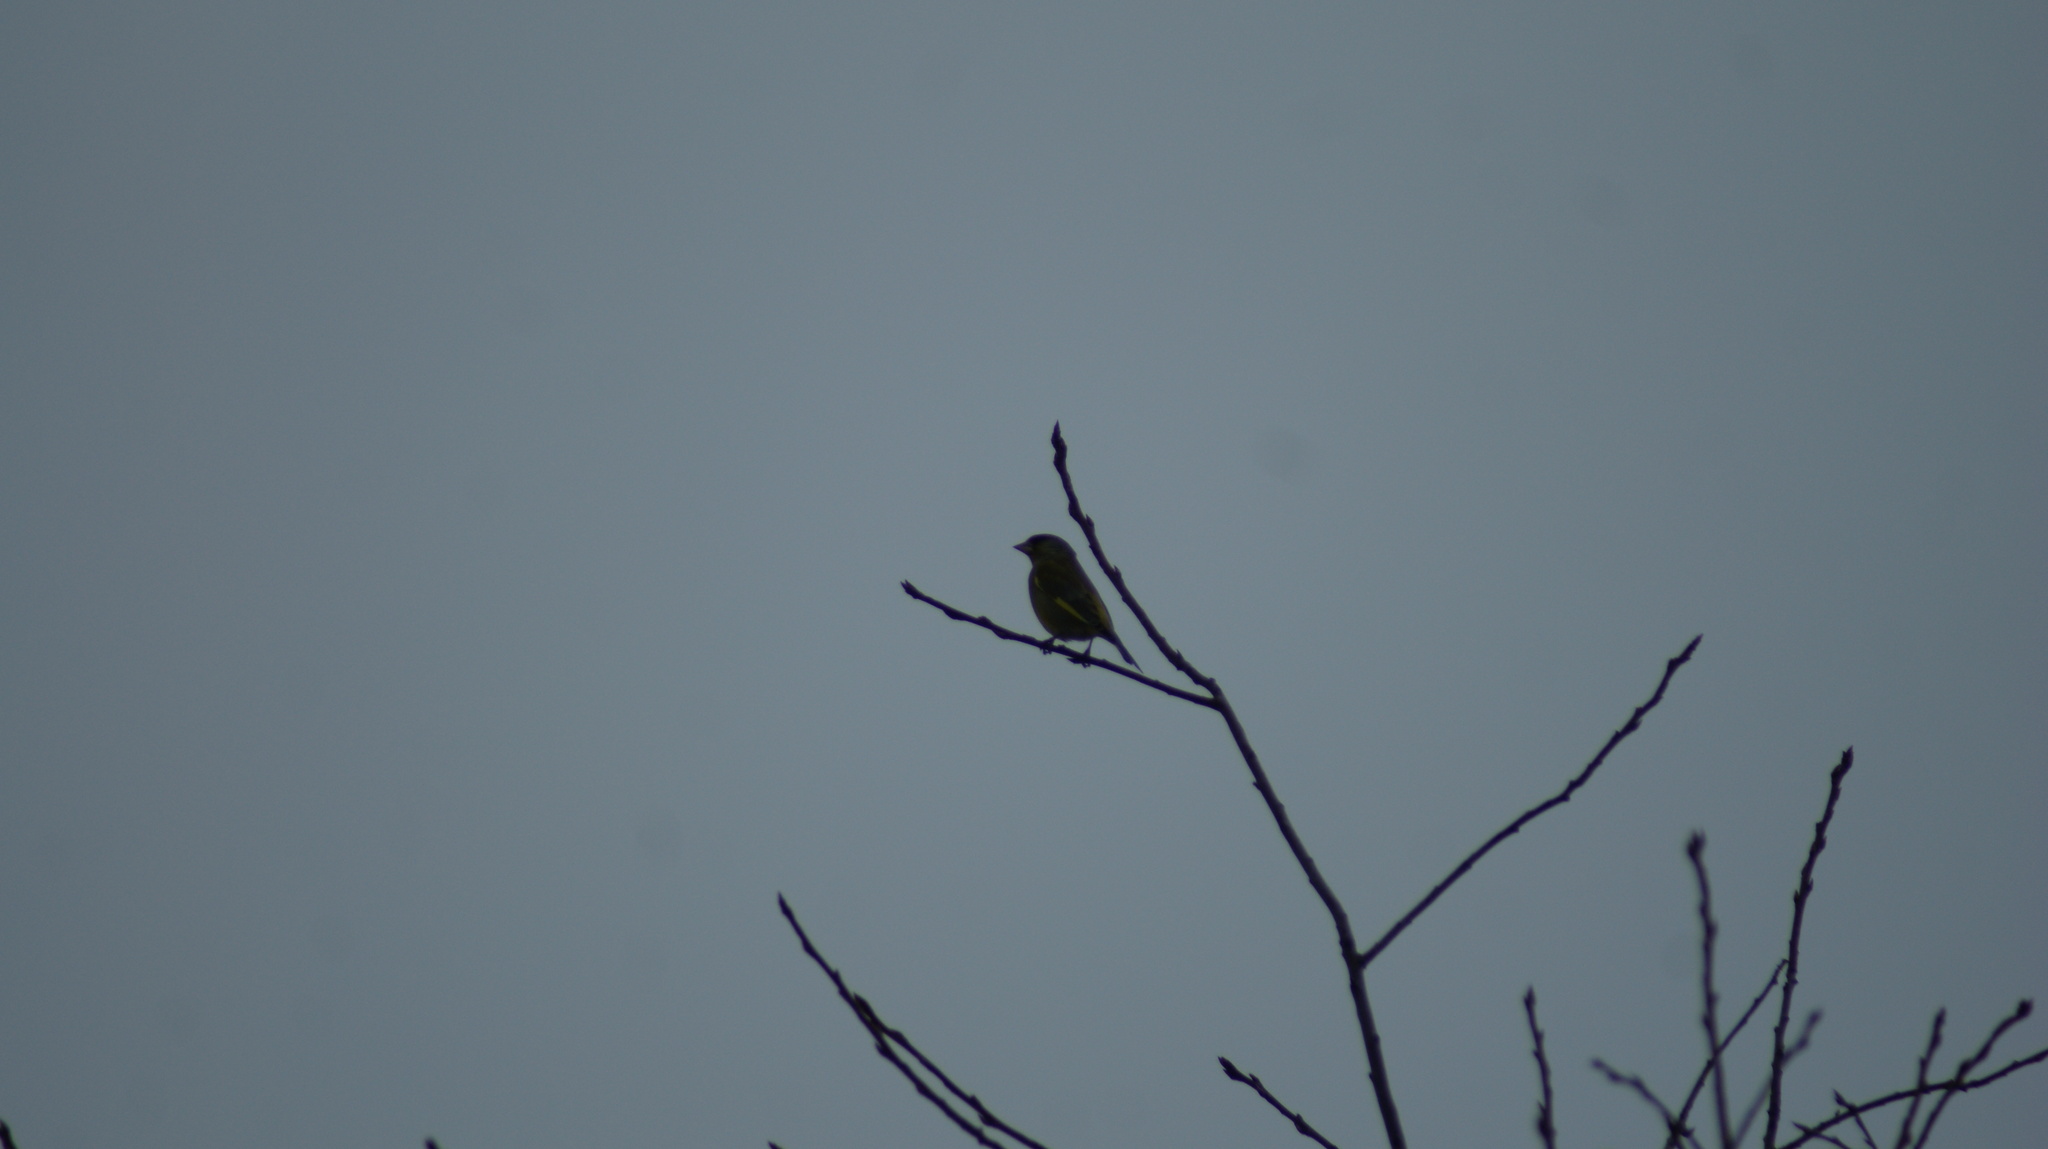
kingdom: Plantae
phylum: Tracheophyta
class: Liliopsida
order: Poales
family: Poaceae
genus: Chloris
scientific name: Chloris chloris
